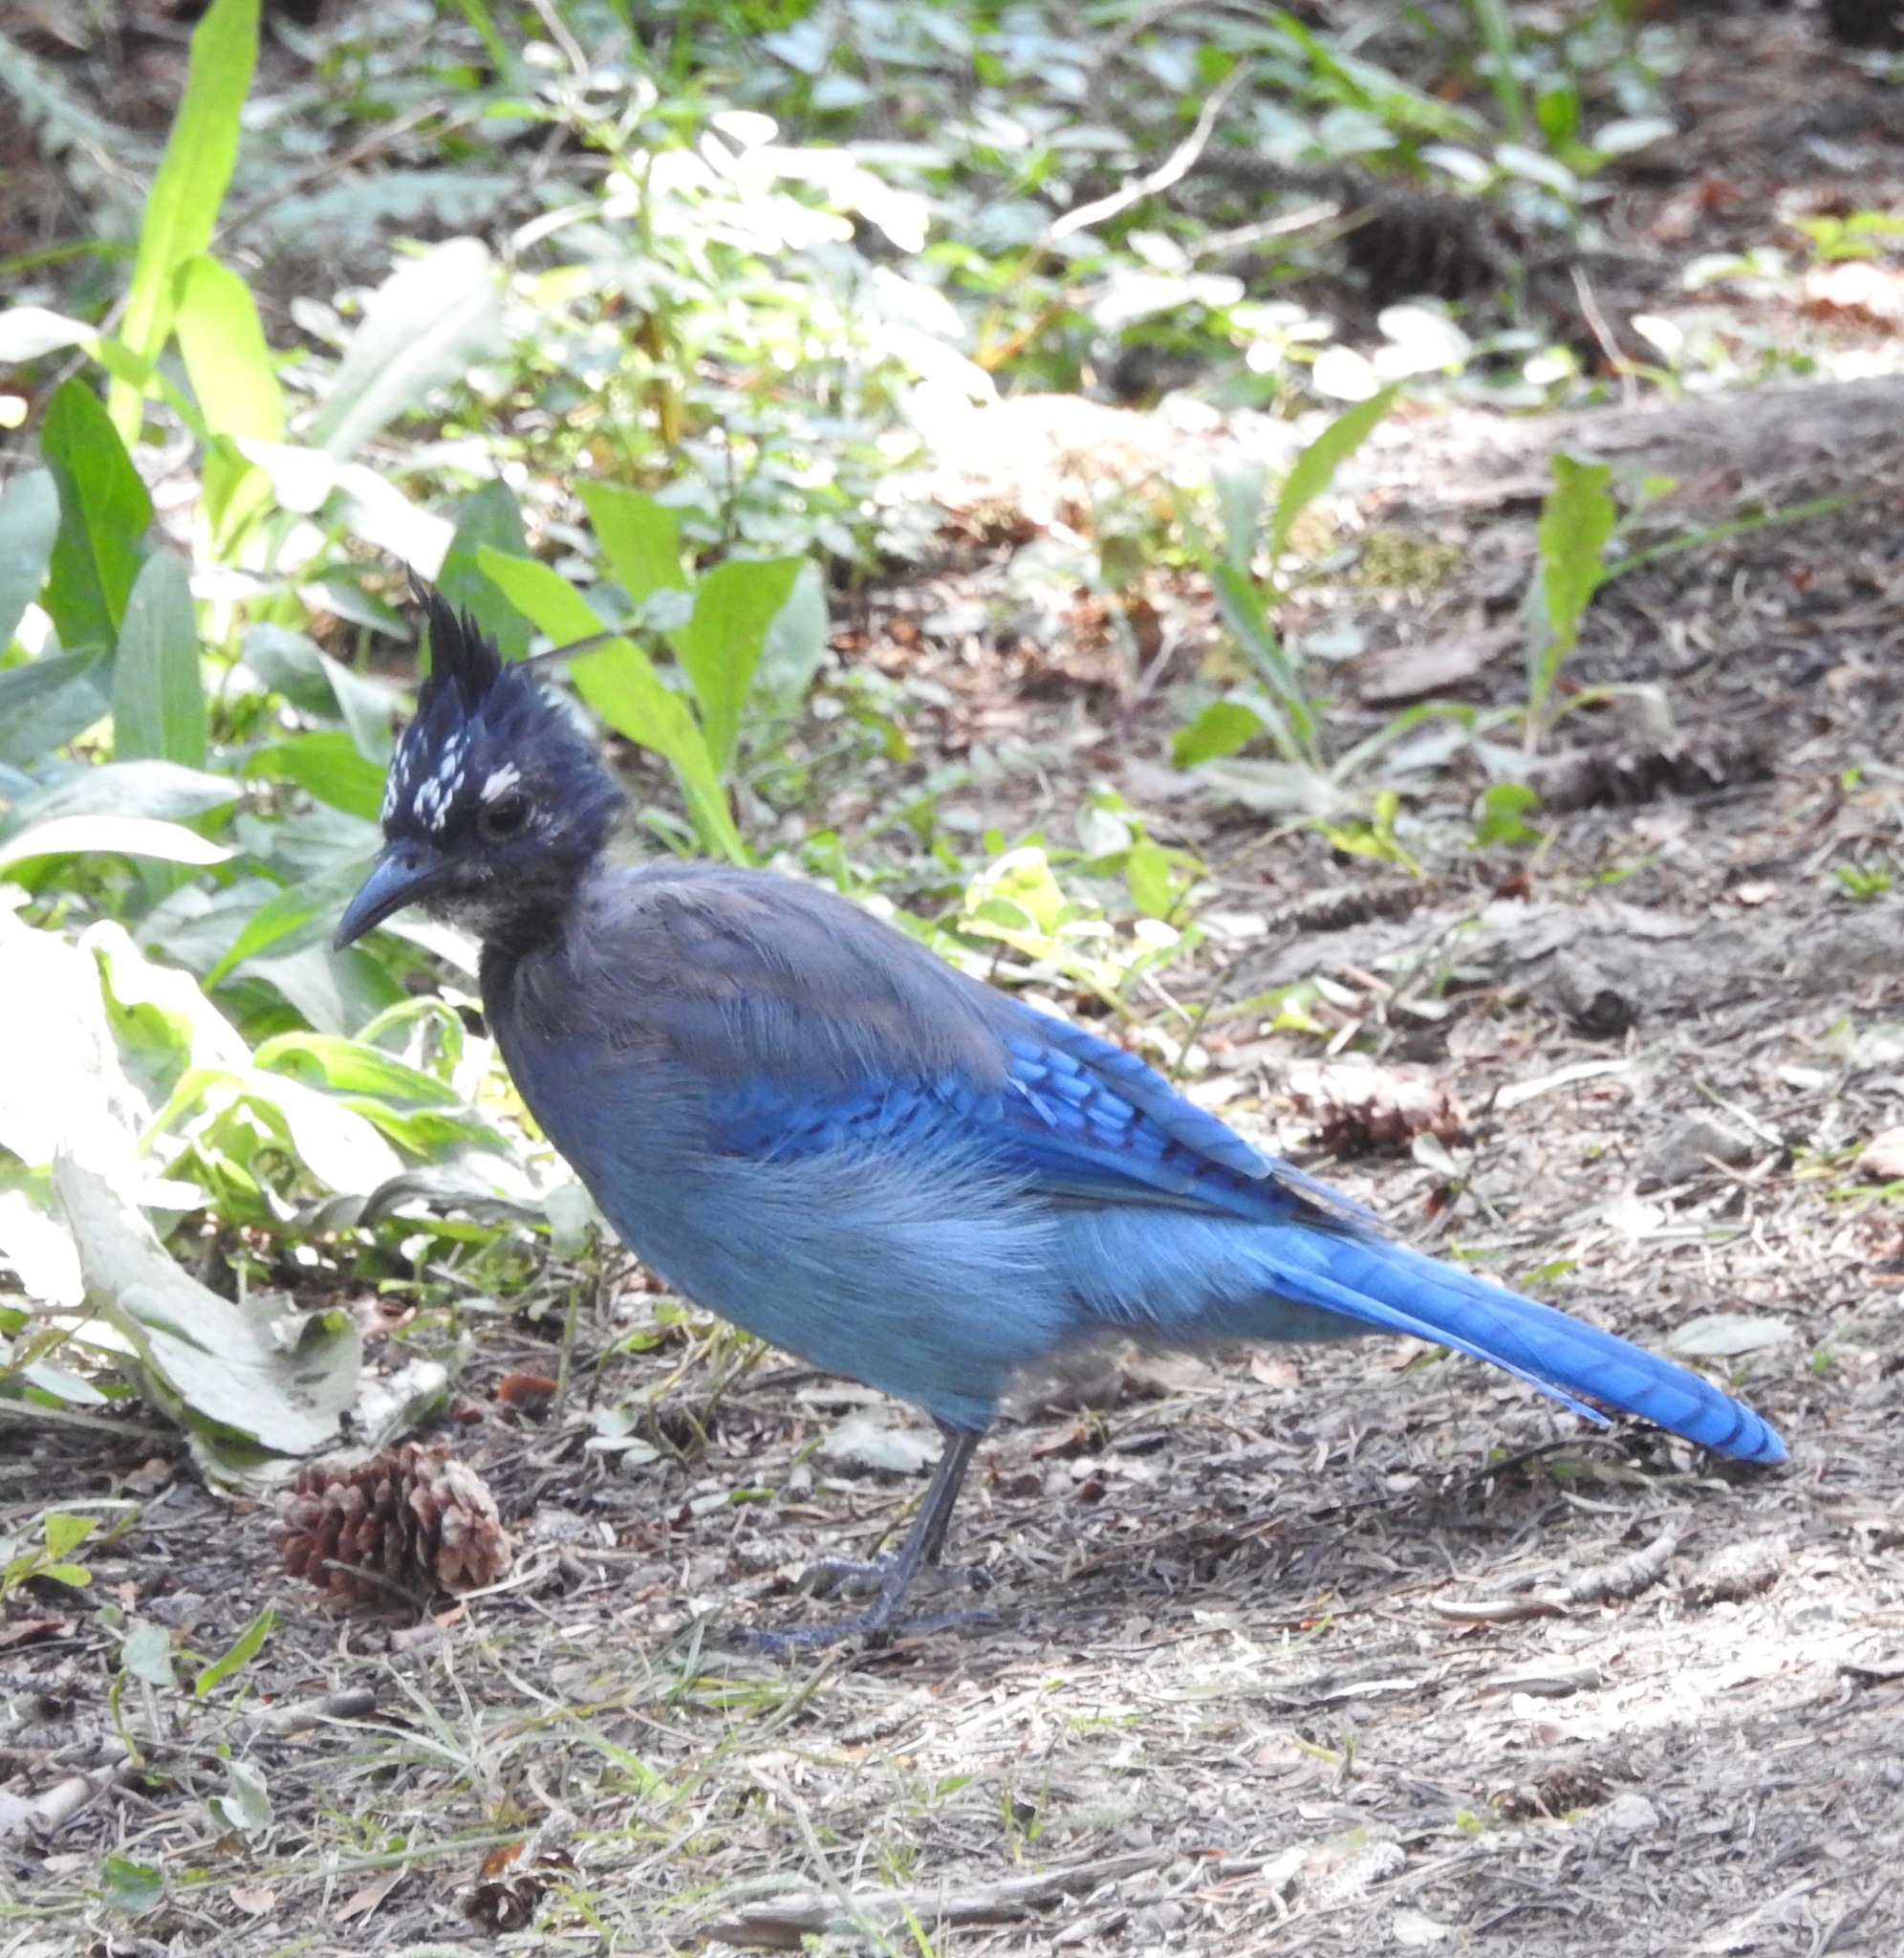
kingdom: Animalia
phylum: Chordata
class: Aves
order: Passeriformes
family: Corvidae
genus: Cyanocitta
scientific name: Cyanocitta stelleri
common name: Steller's jay
